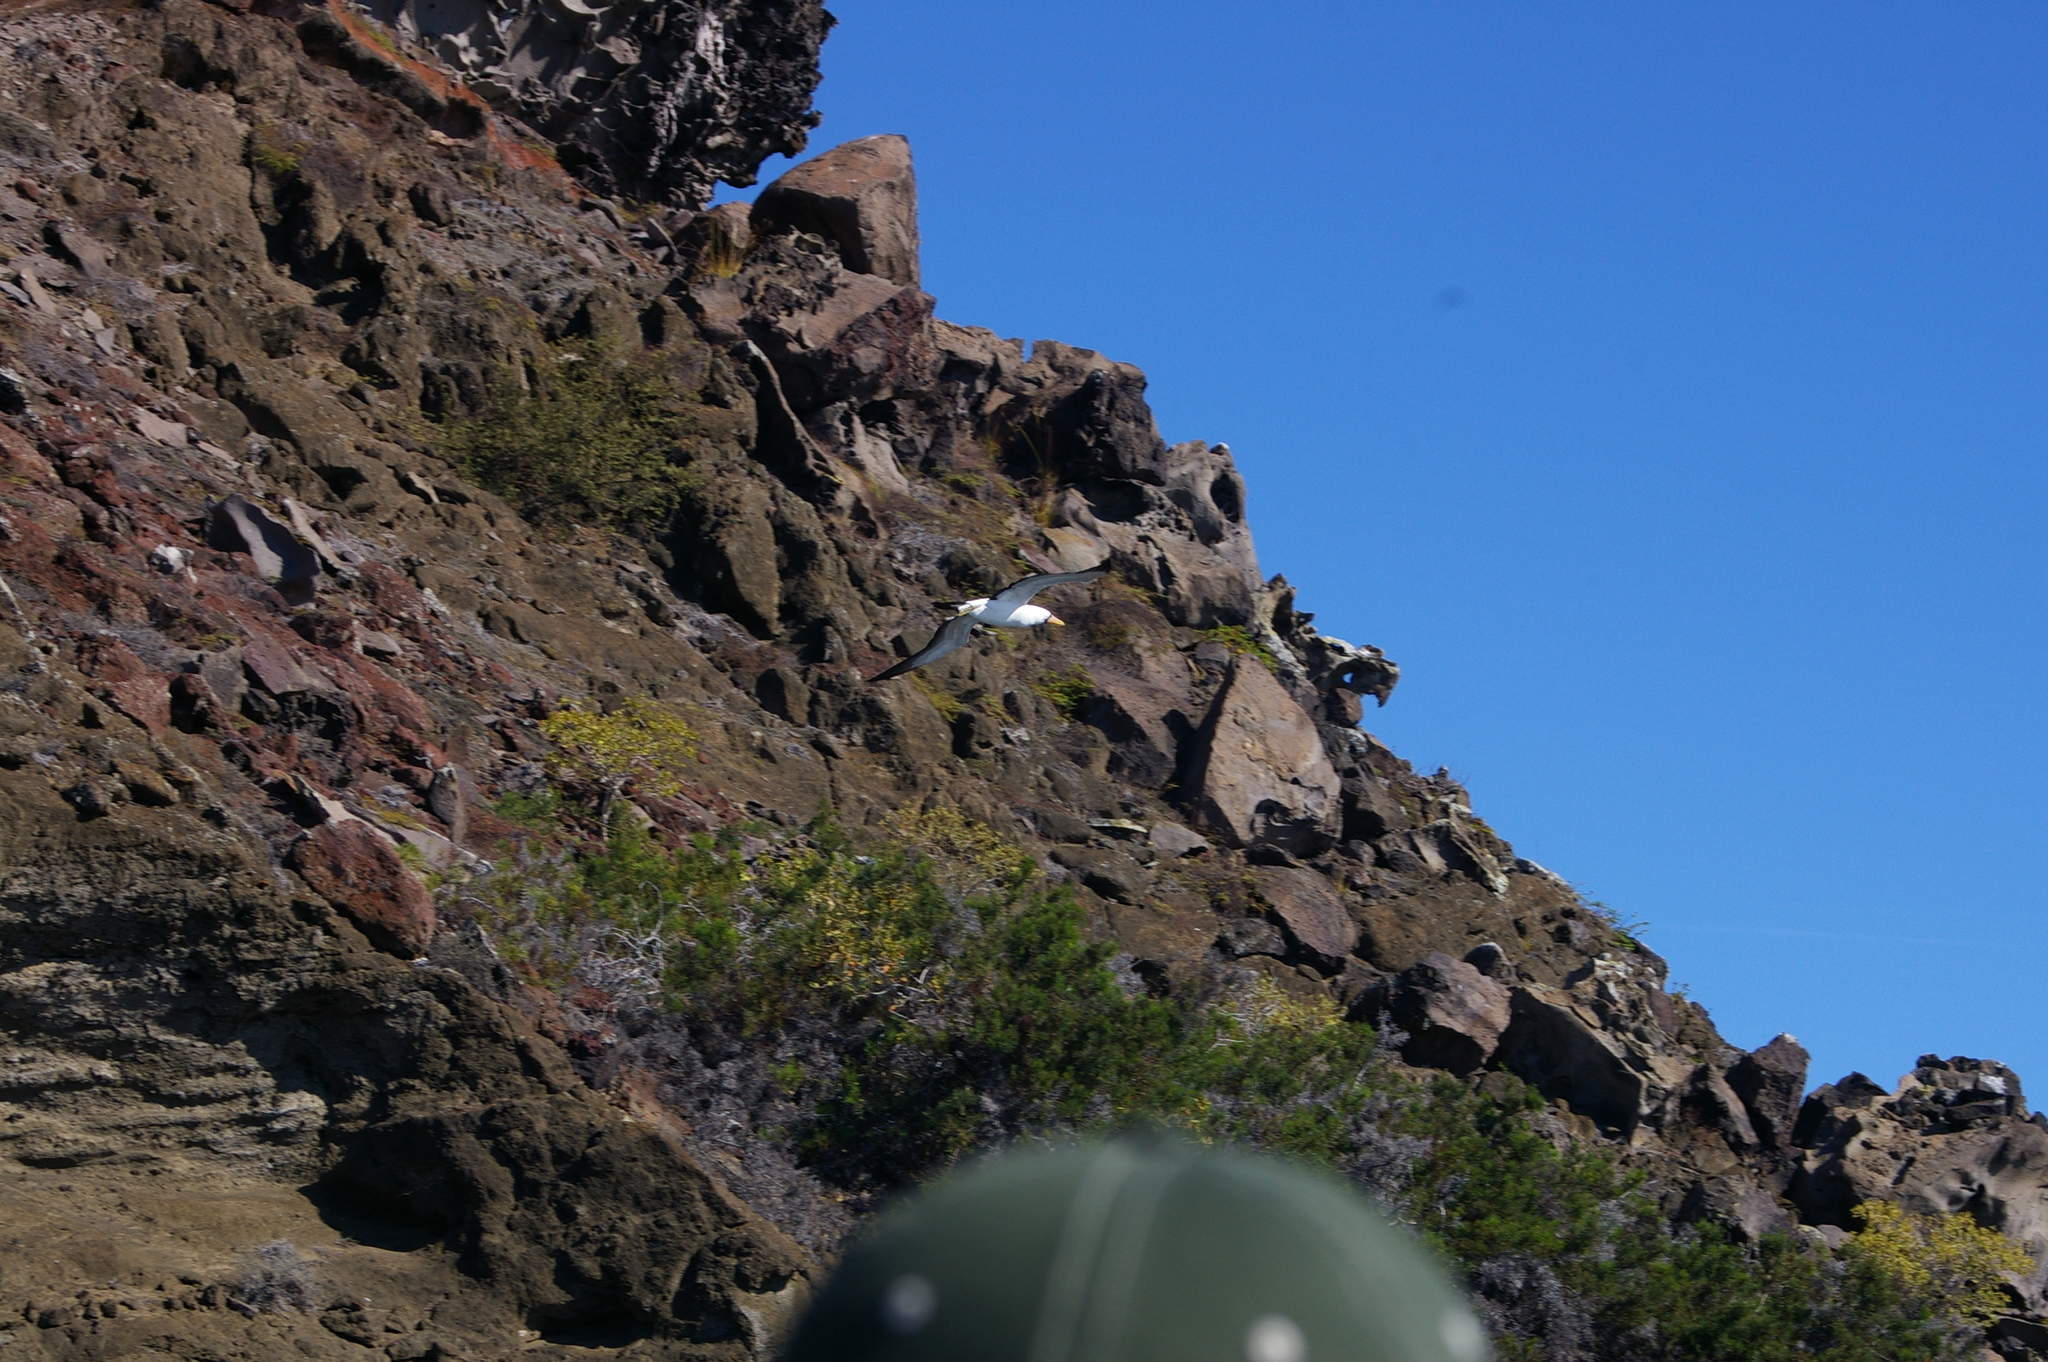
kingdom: Animalia
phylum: Chordata
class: Aves
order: Suliformes
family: Sulidae
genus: Sula
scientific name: Sula granti
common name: Nazca booby
